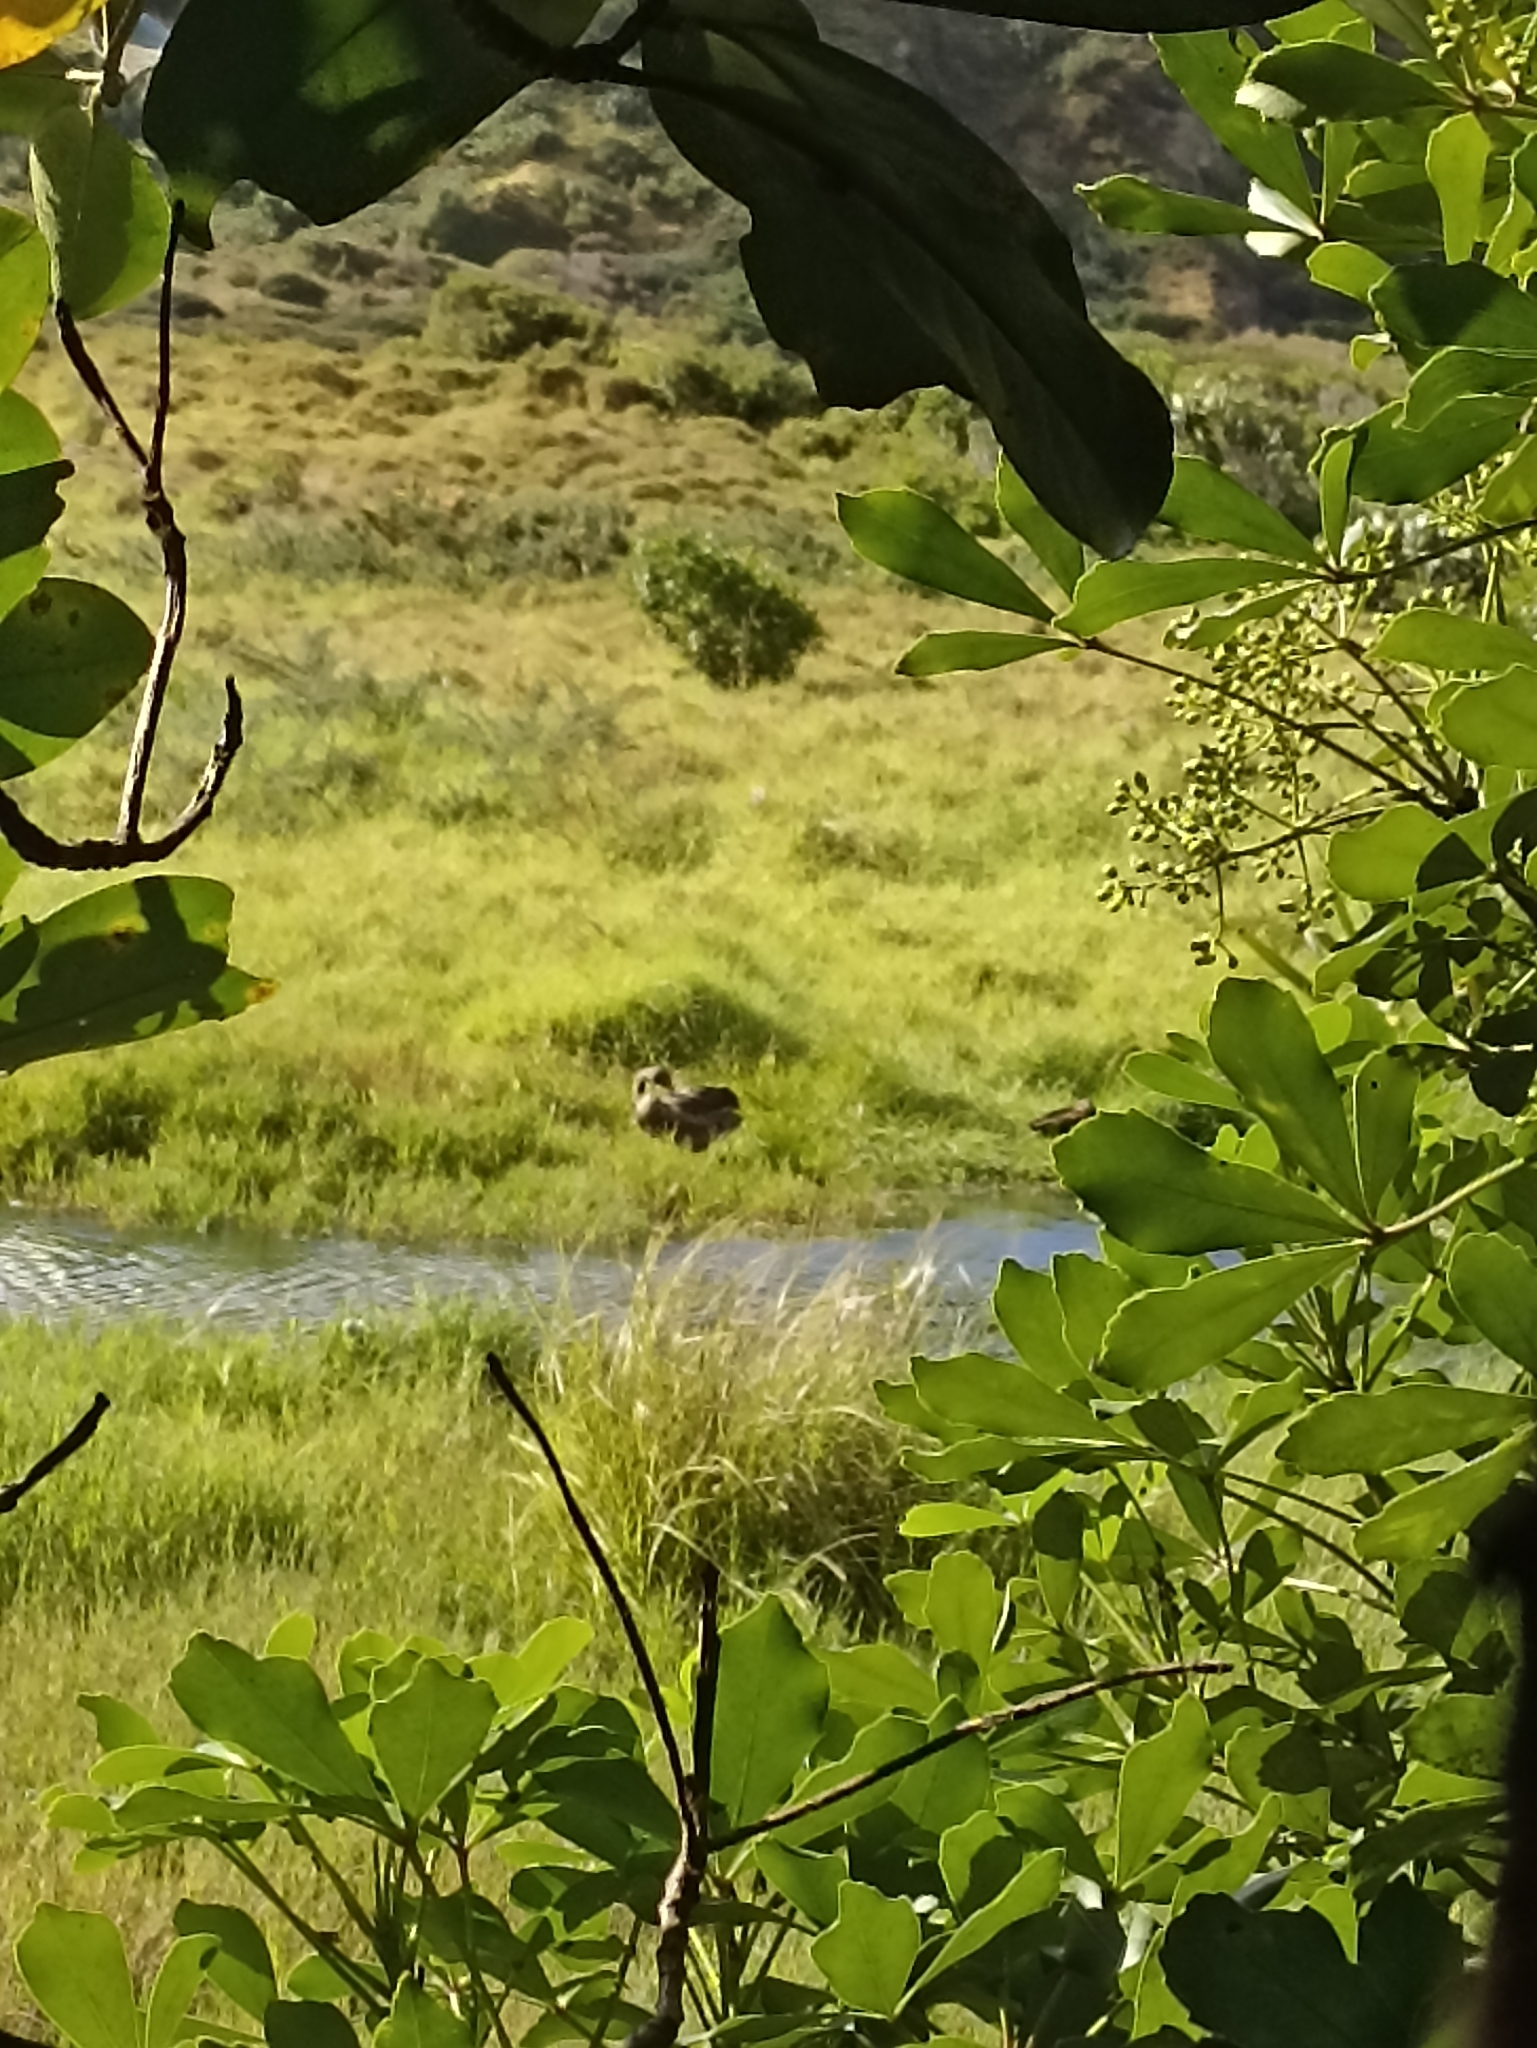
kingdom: Animalia
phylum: Chordata
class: Aves
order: Anseriformes
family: Anatidae
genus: Cygnus
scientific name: Cygnus atratus
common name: Black swan
